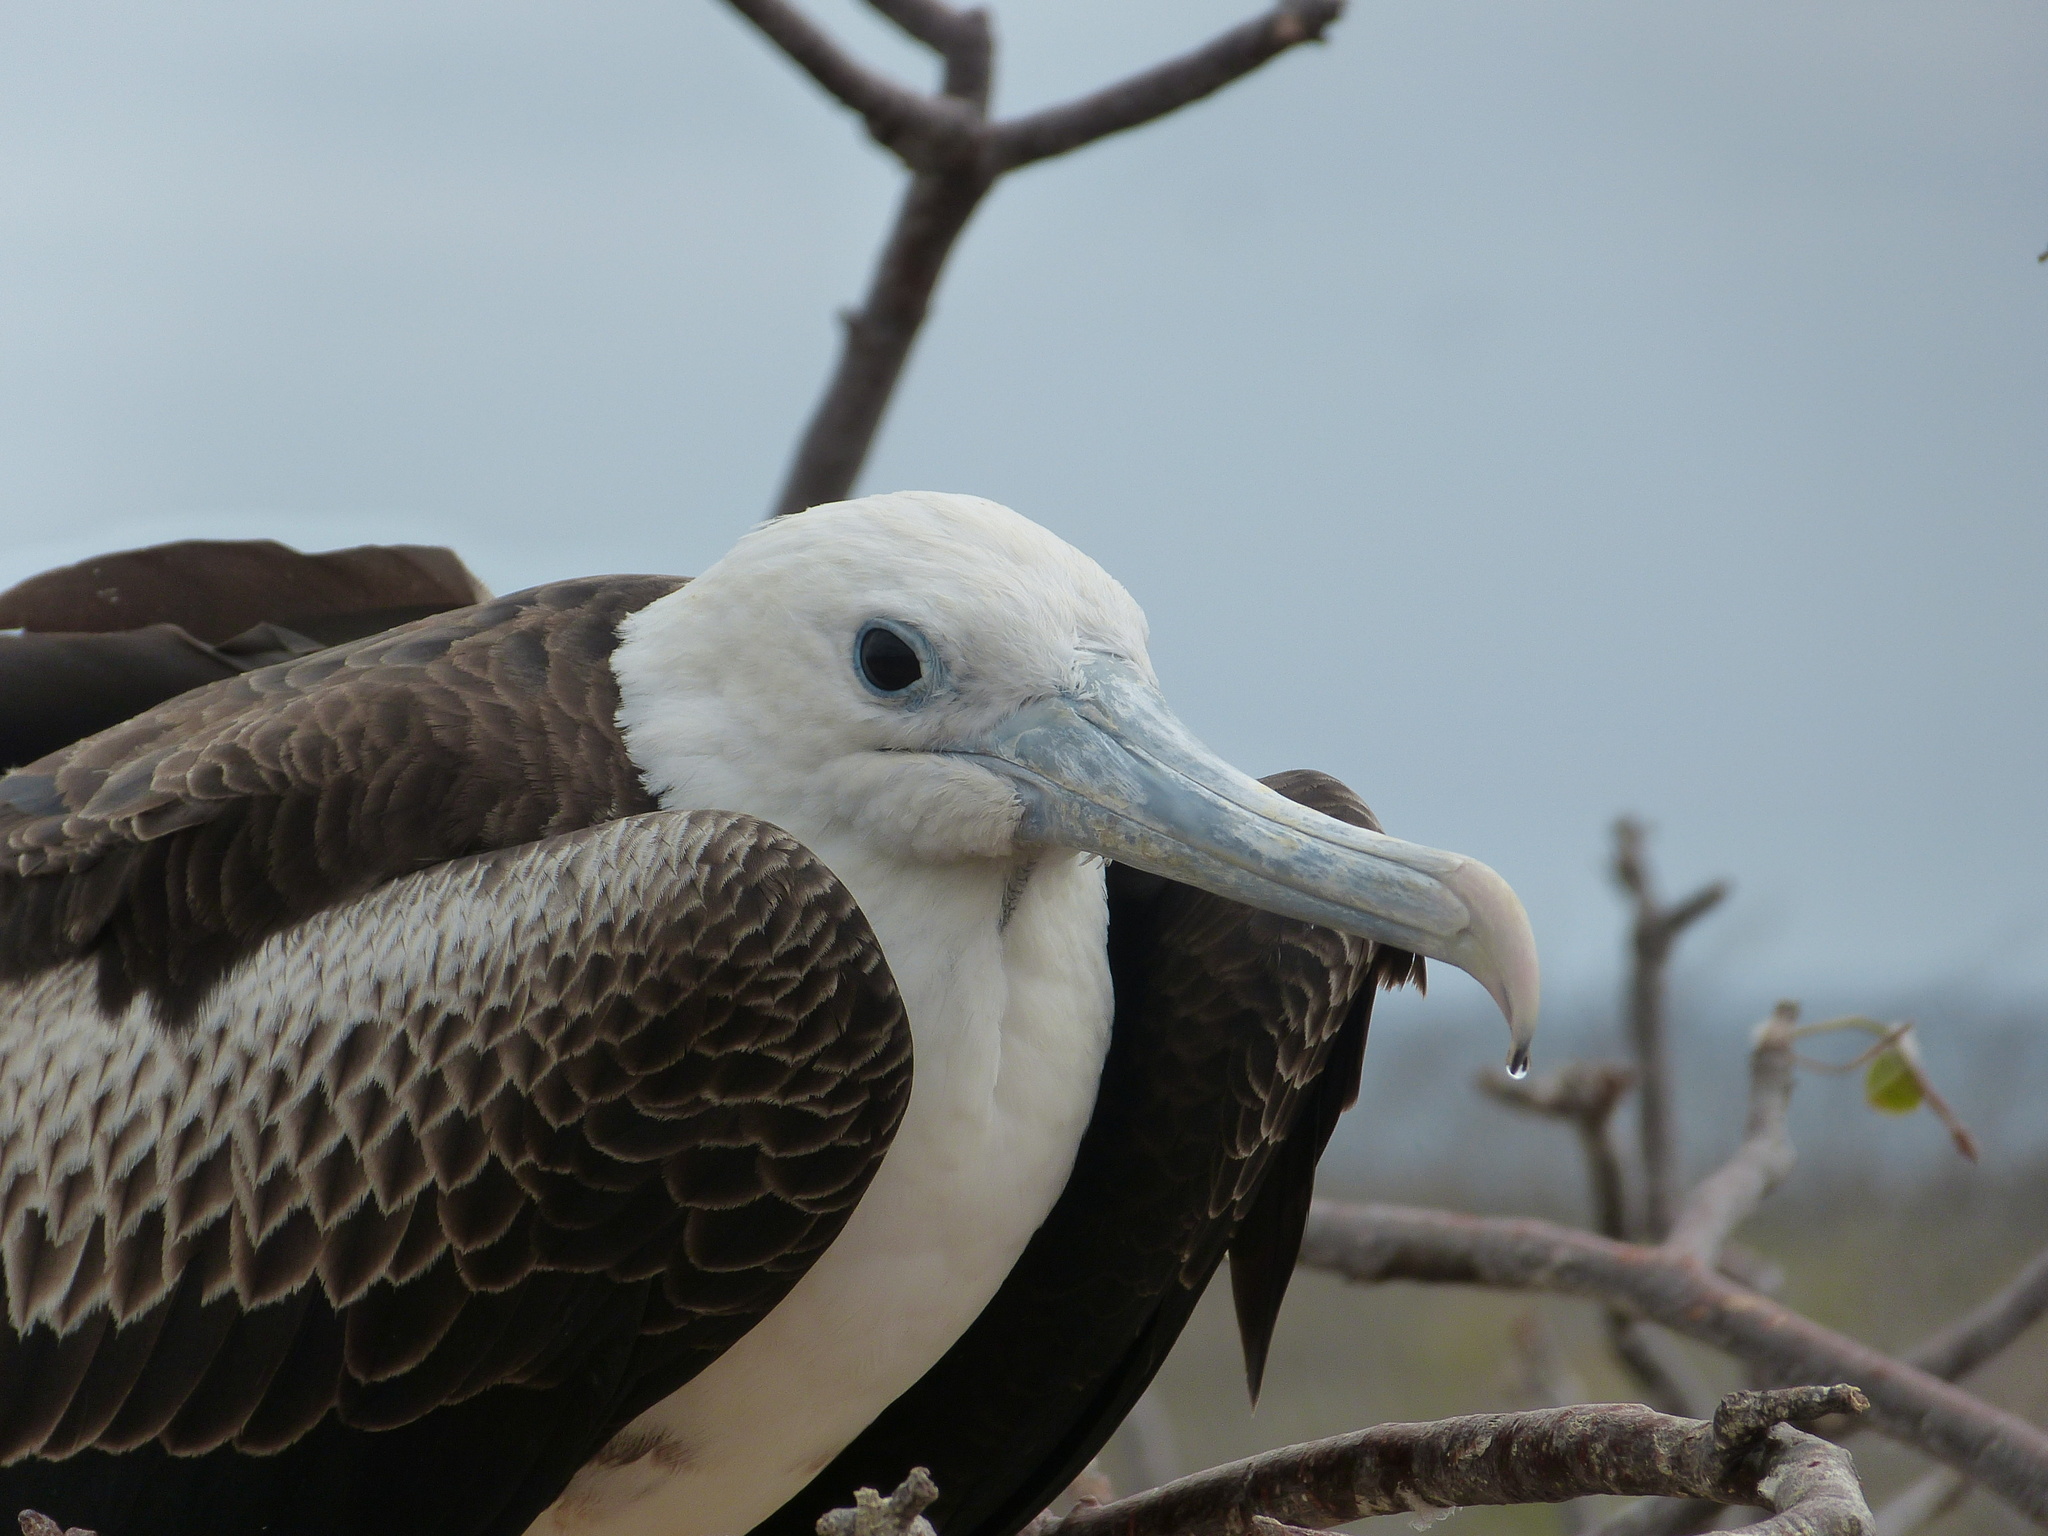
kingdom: Animalia
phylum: Chordata
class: Aves
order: Suliformes
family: Fregatidae
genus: Fregata
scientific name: Fregata magnificens
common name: Magnificent frigatebird
